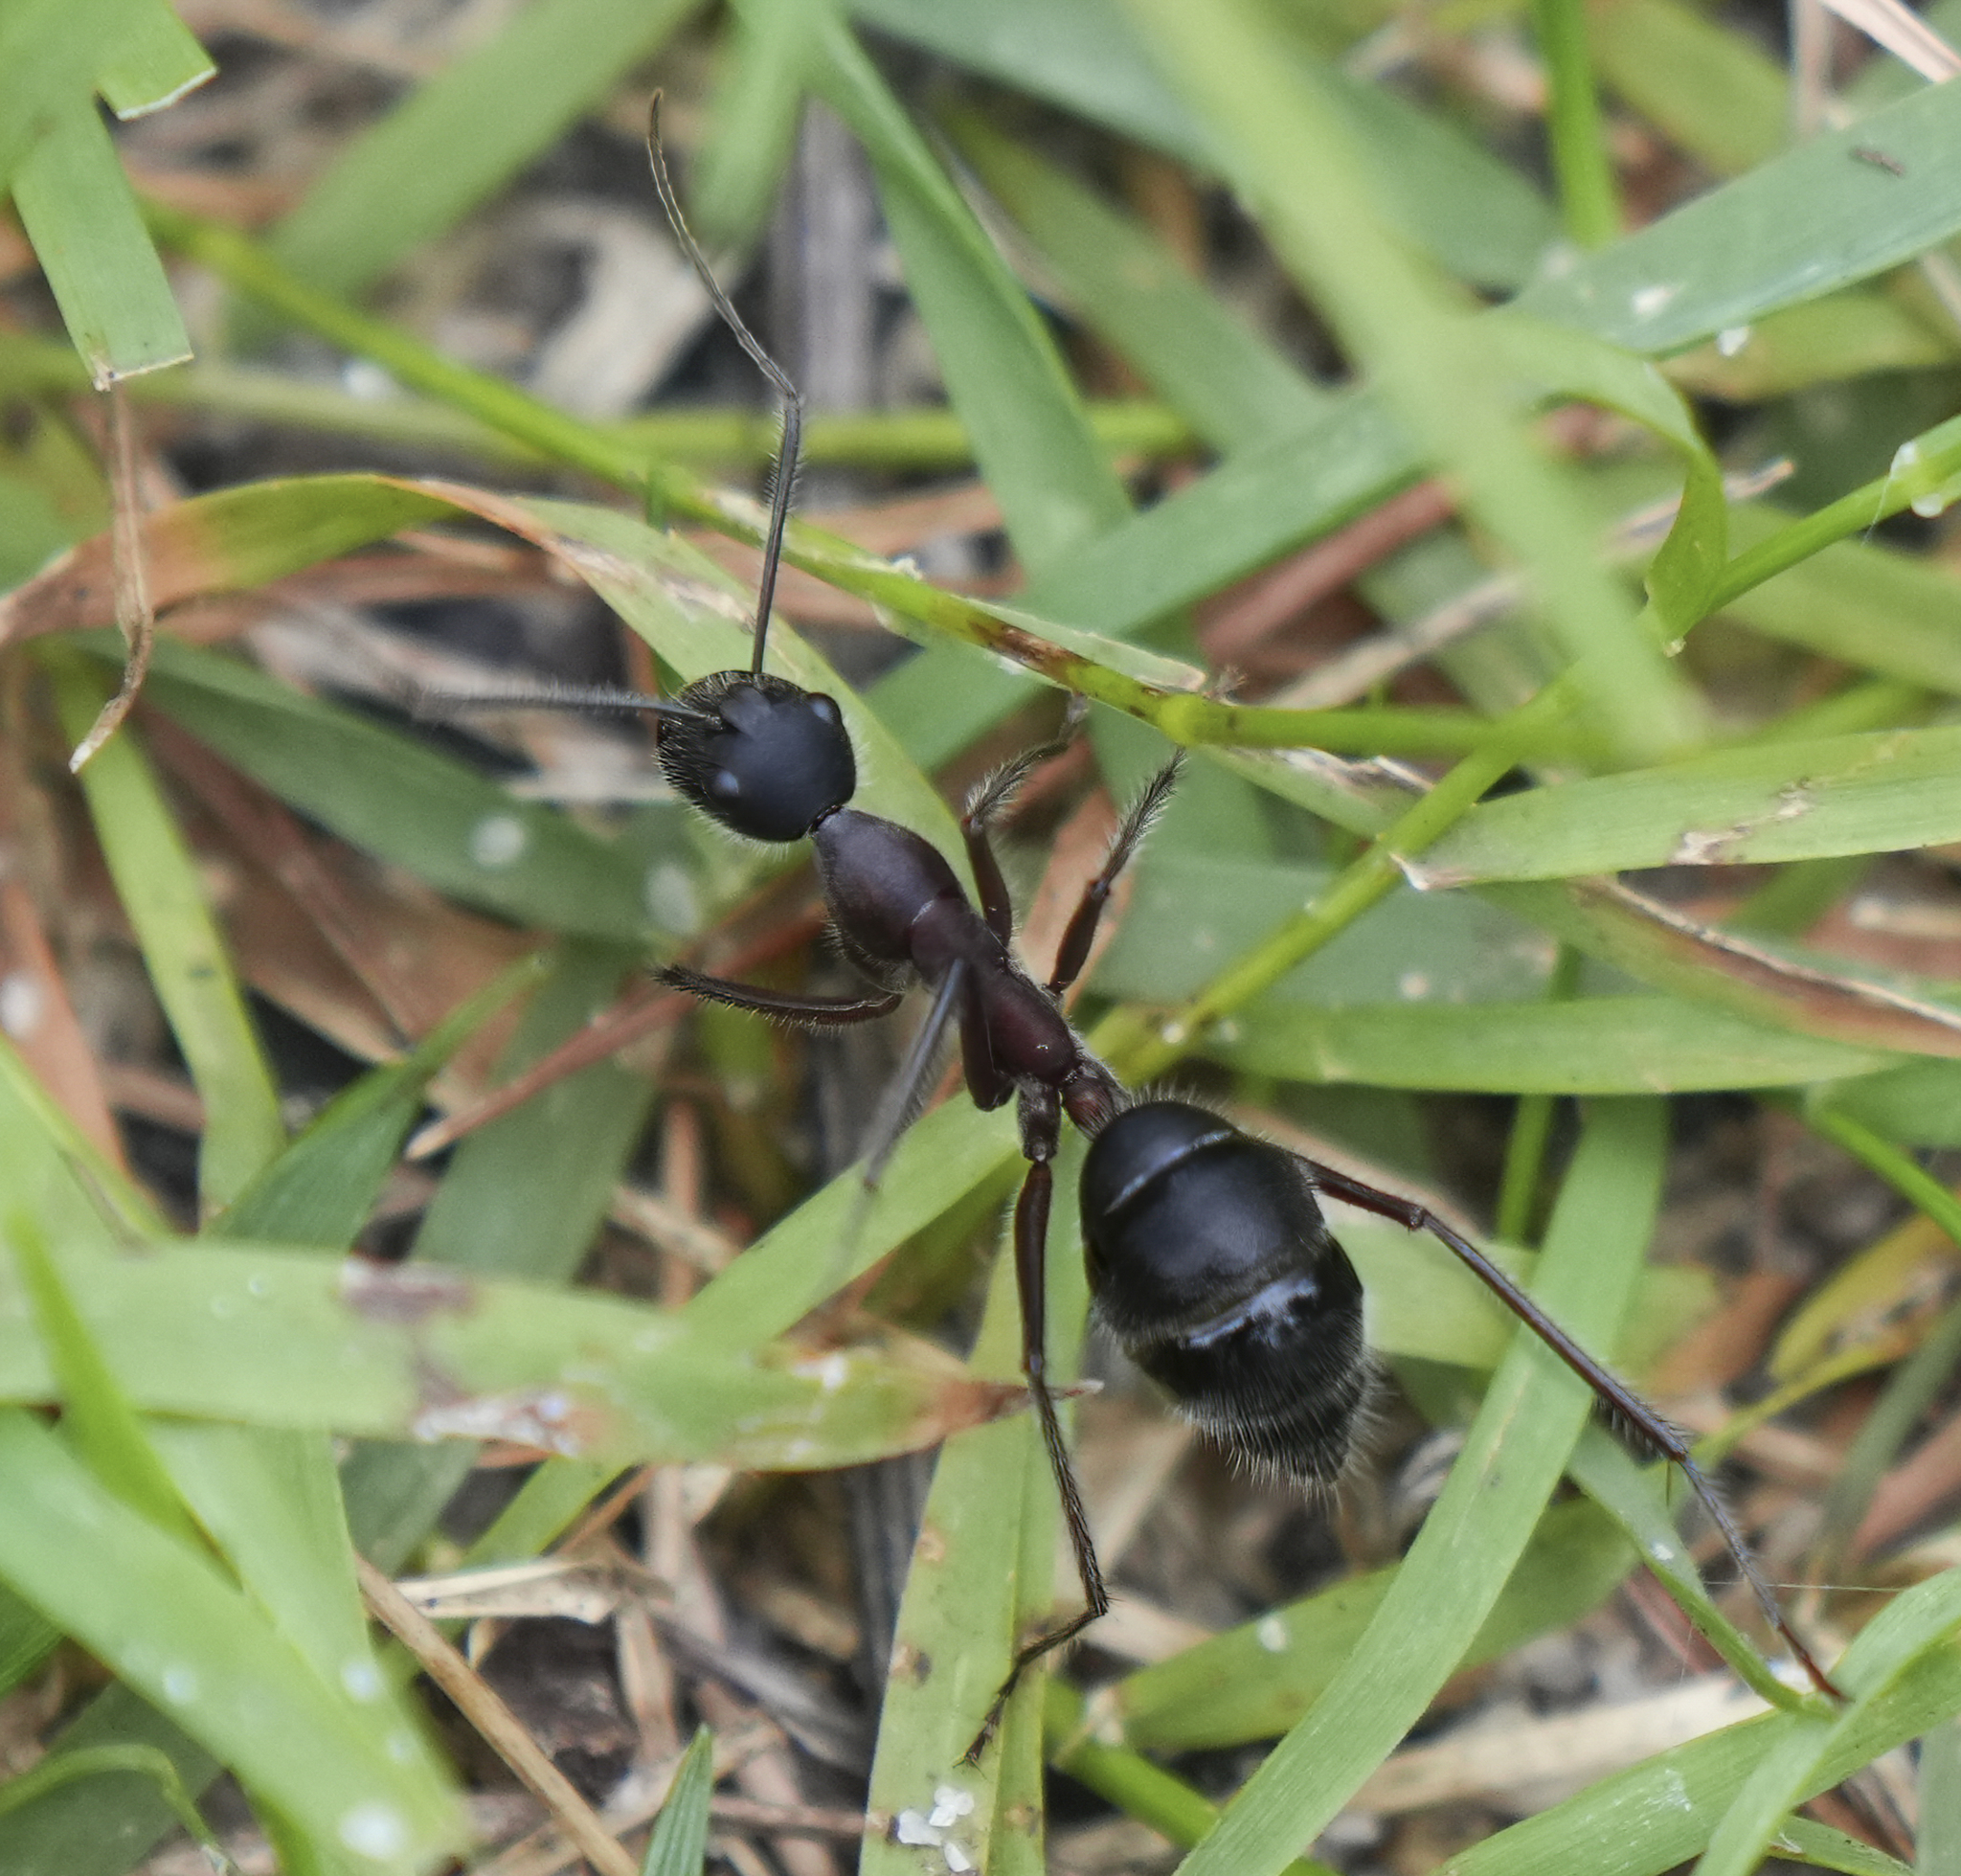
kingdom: Animalia
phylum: Arthropoda
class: Insecta
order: Hymenoptera
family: Formicidae
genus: Camponotus
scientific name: Camponotus intrepidus
